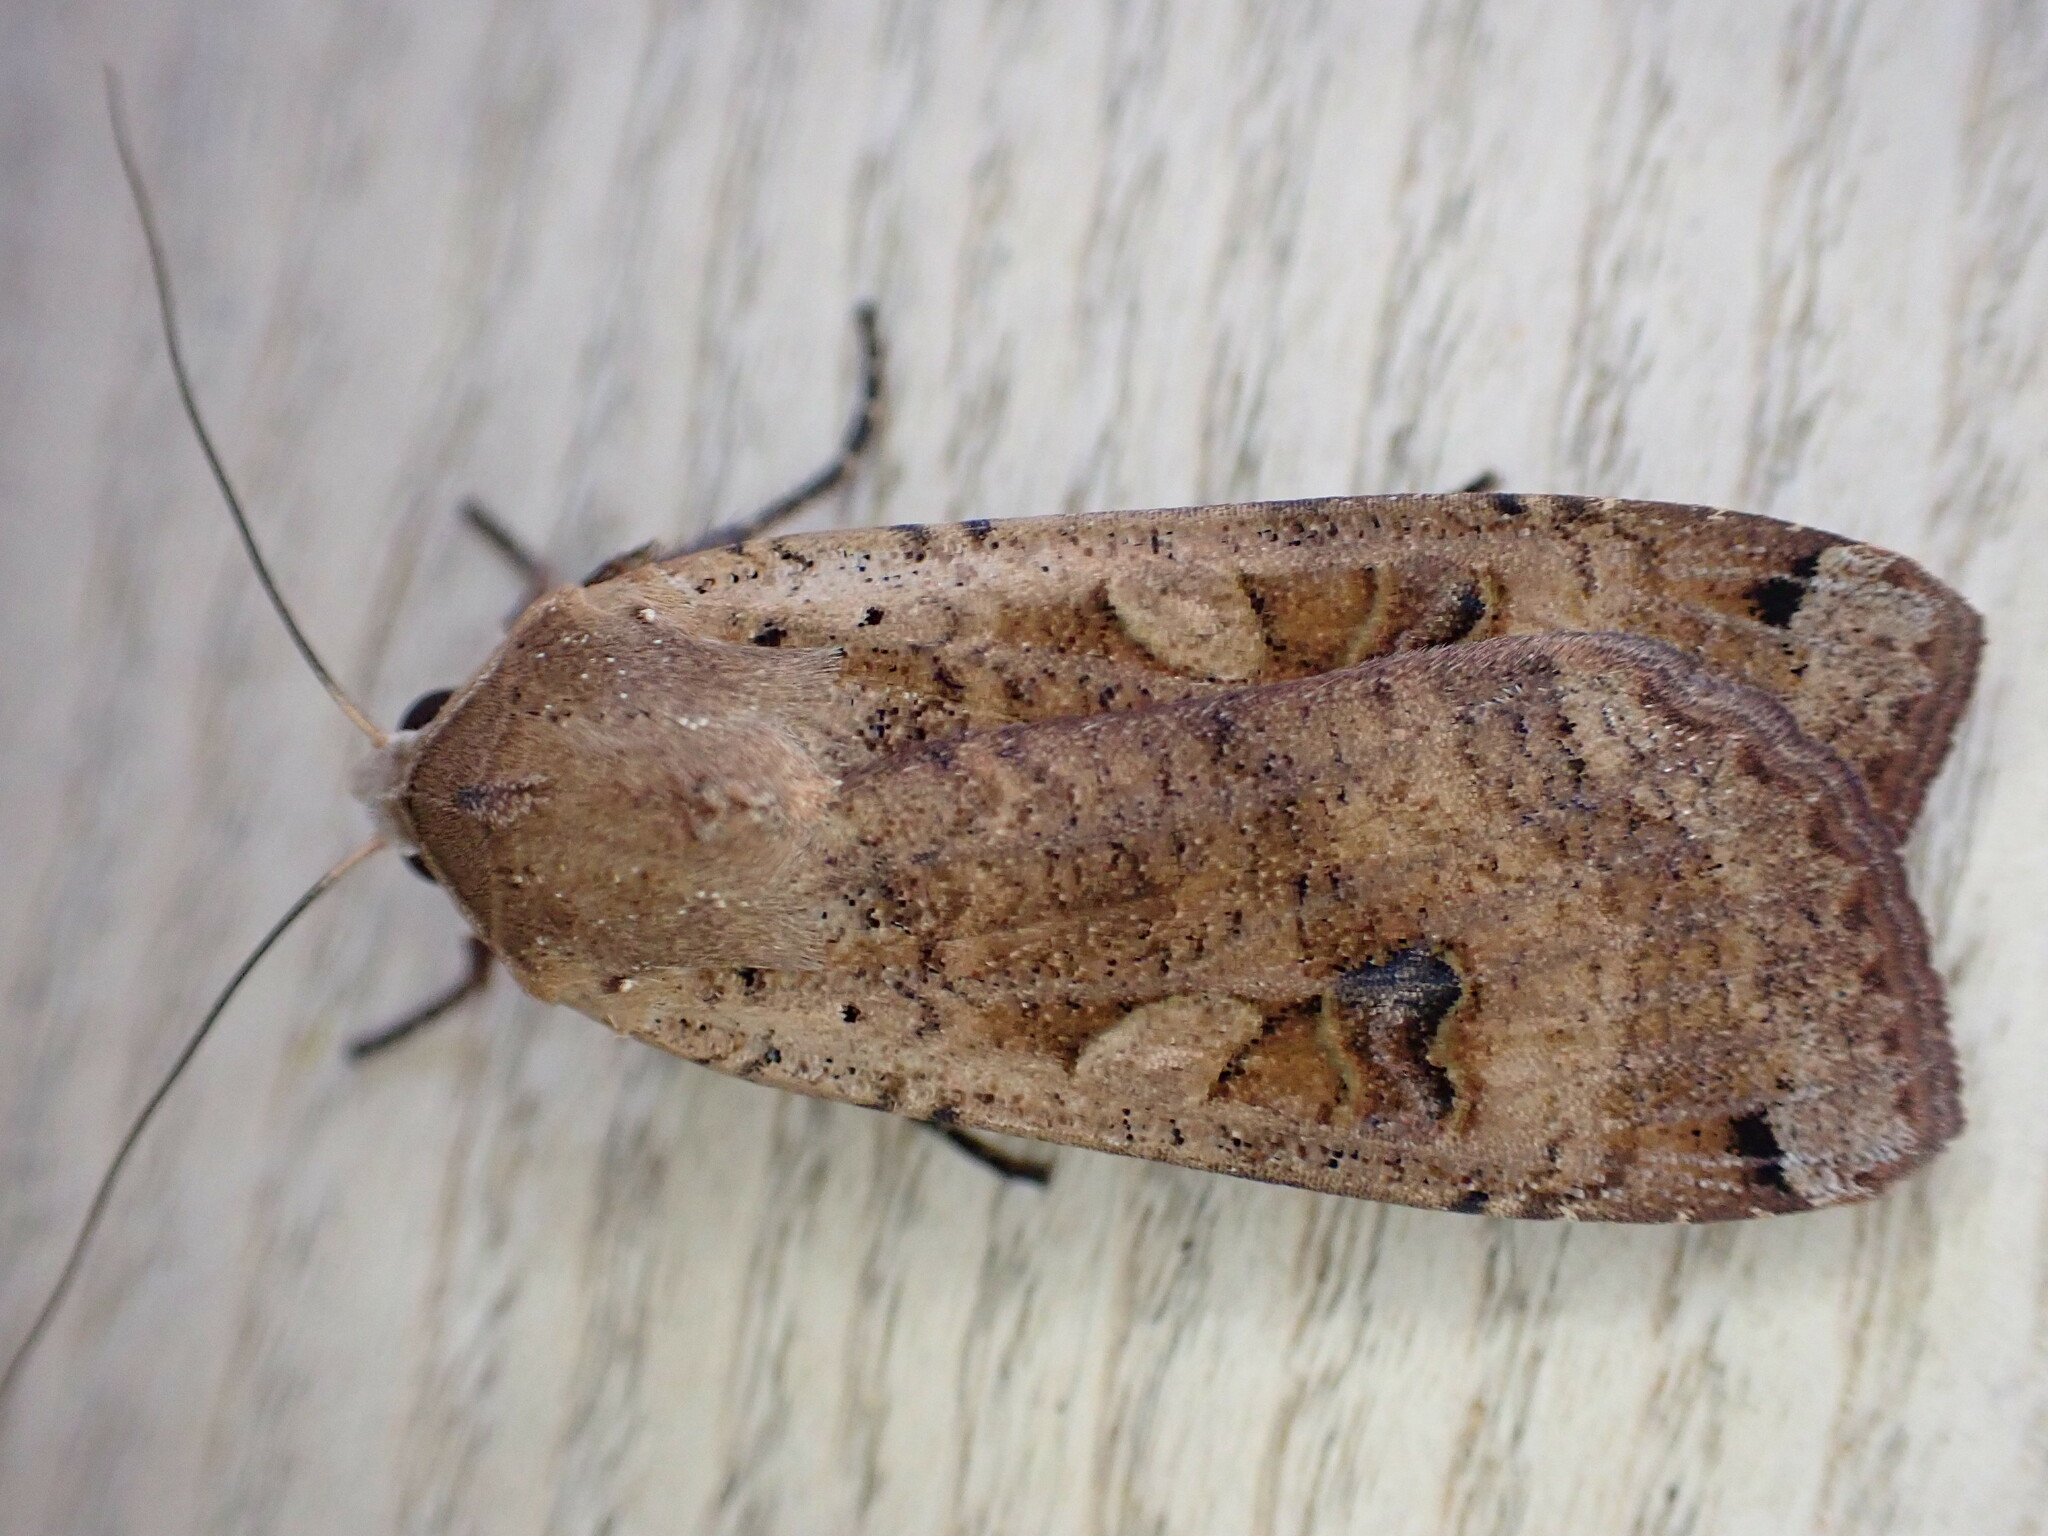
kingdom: Animalia
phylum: Arthropoda
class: Insecta
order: Lepidoptera
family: Noctuidae
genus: Noctua
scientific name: Noctua pronuba
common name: Large yellow underwing
